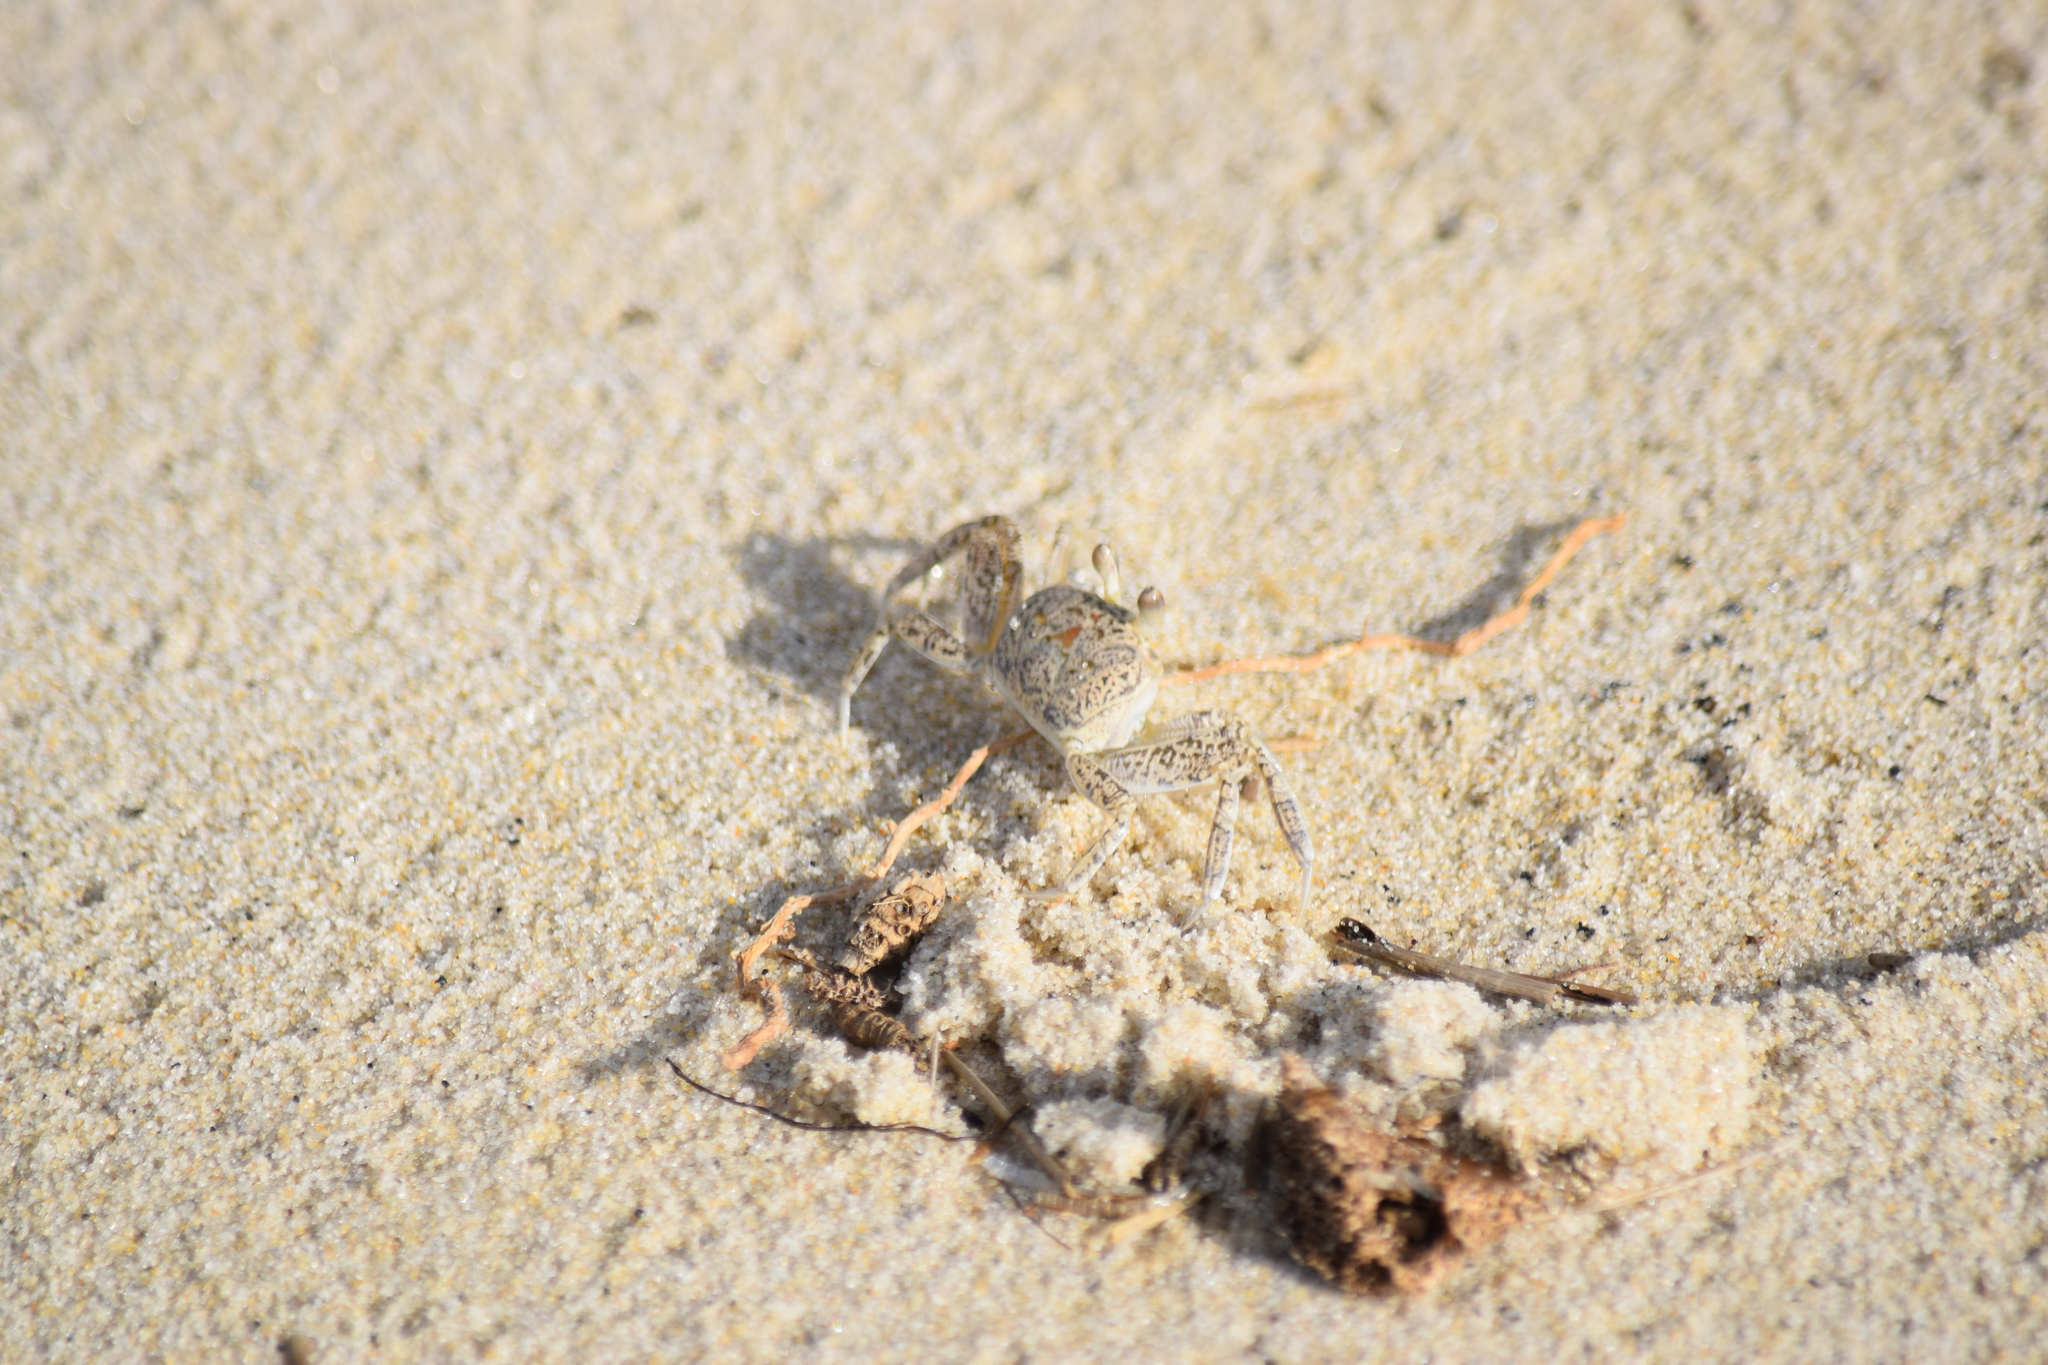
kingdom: Animalia
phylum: Arthropoda
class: Malacostraca
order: Decapoda
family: Ocypodidae
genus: Ocypode
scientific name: Ocypode quadrata
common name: Ghost crab
